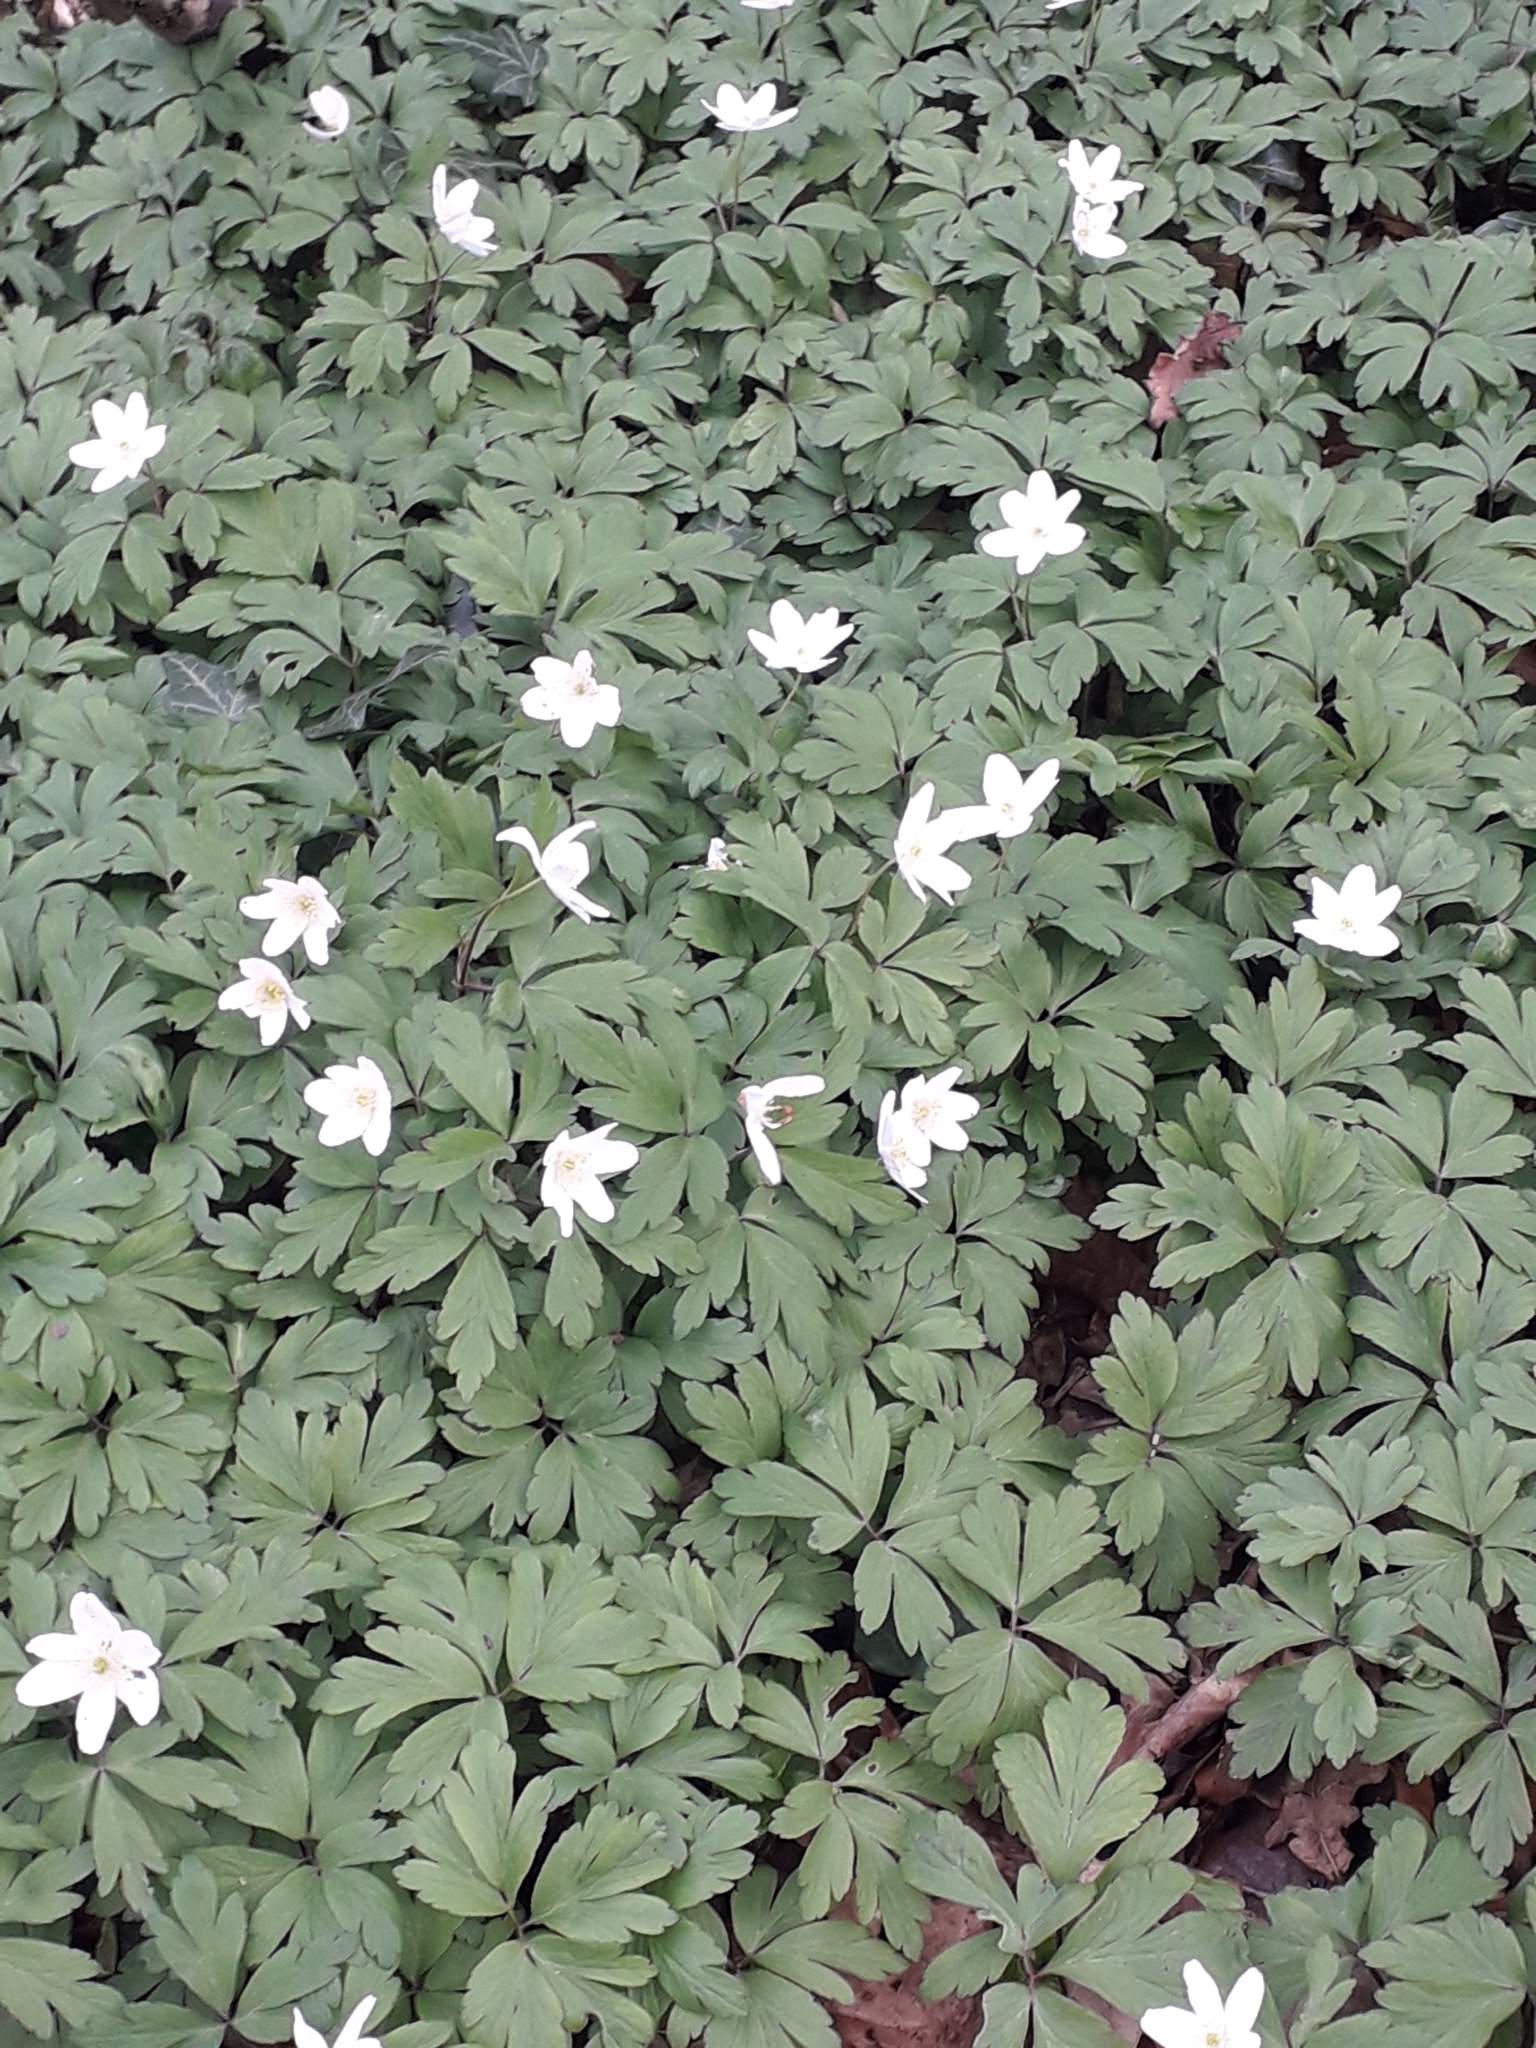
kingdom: Plantae
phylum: Tracheophyta
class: Magnoliopsida
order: Ranunculales
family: Ranunculaceae
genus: Anemone
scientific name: Anemone nemorosa
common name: Wood anemone
